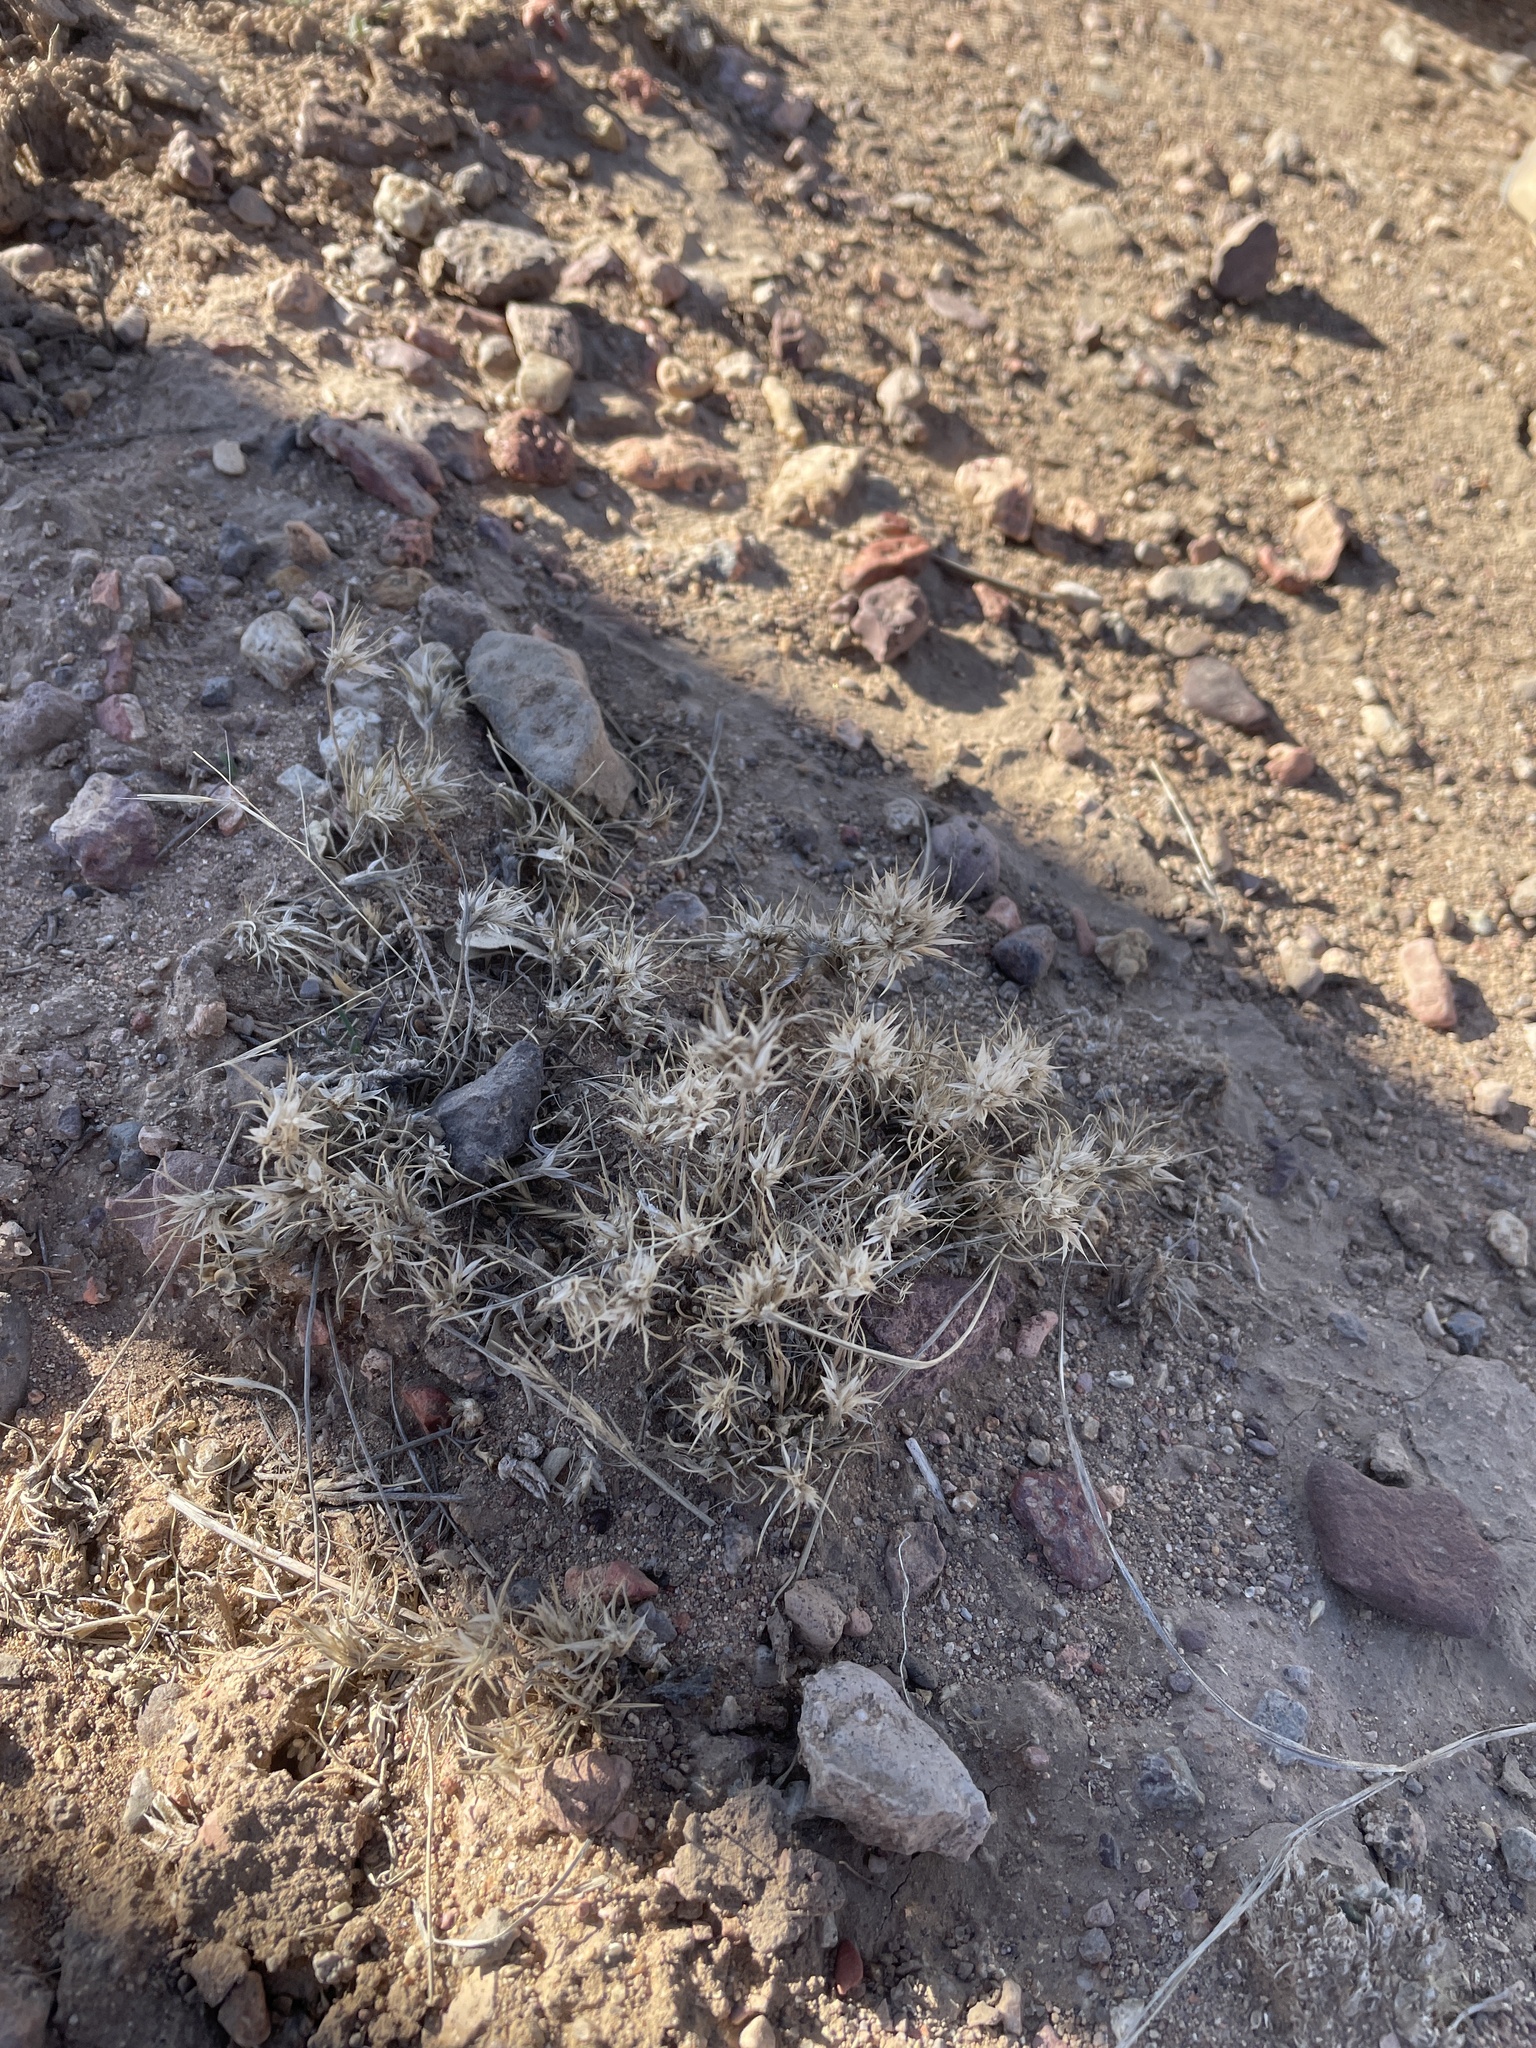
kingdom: Plantae
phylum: Tracheophyta
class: Liliopsida
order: Poales
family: Poaceae
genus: Dasyochloa
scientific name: Dasyochloa pulchella
